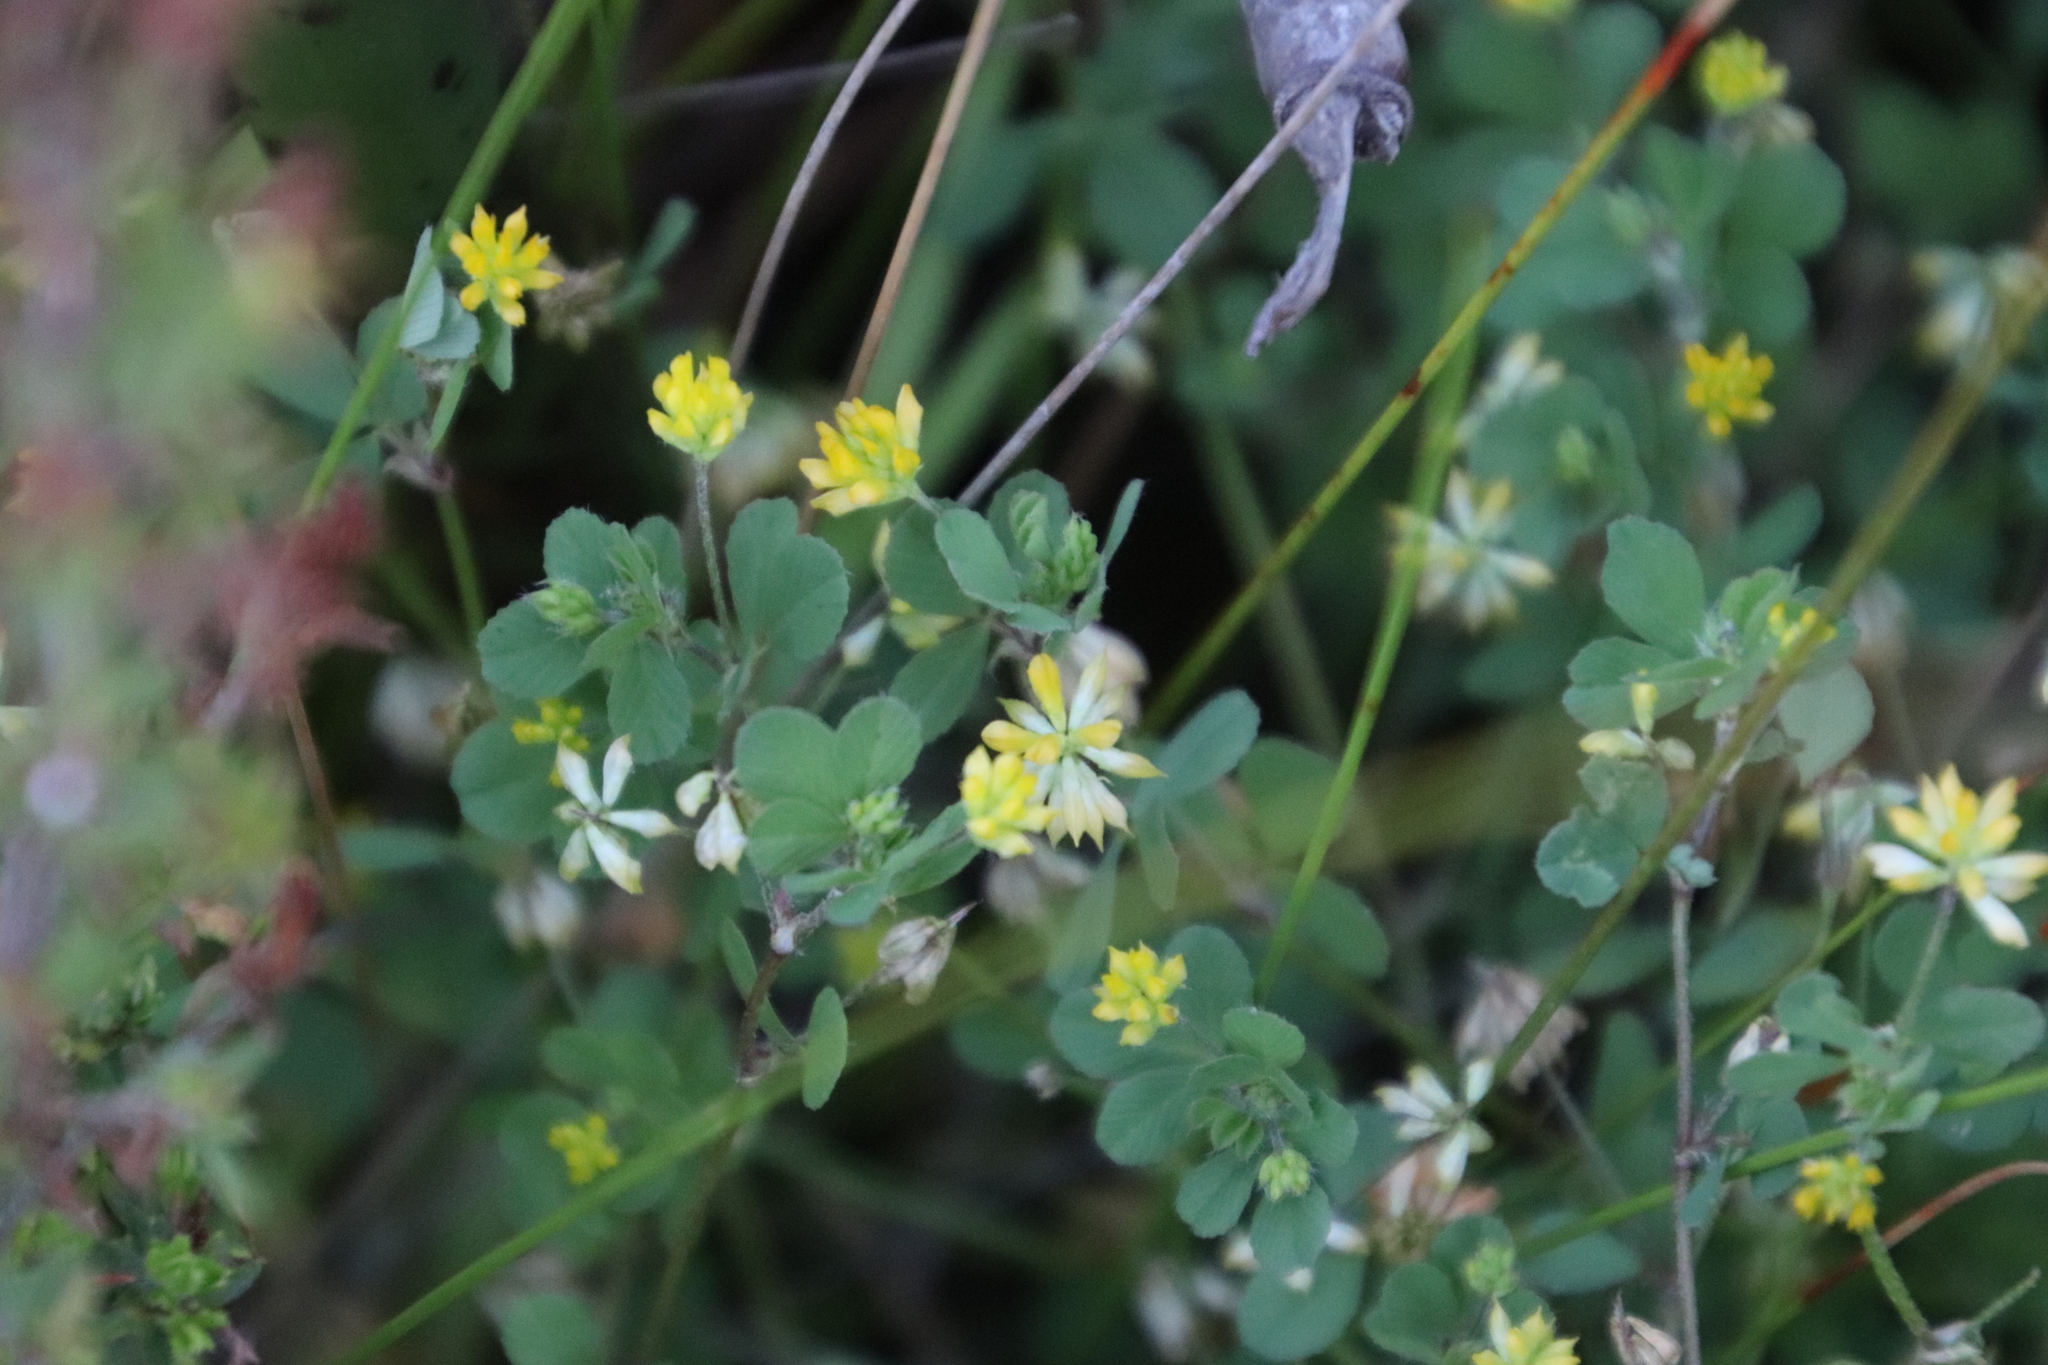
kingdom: Plantae
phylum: Tracheophyta
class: Magnoliopsida
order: Fabales
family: Fabaceae
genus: Trifolium
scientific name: Trifolium dubium
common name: Suckling clover
